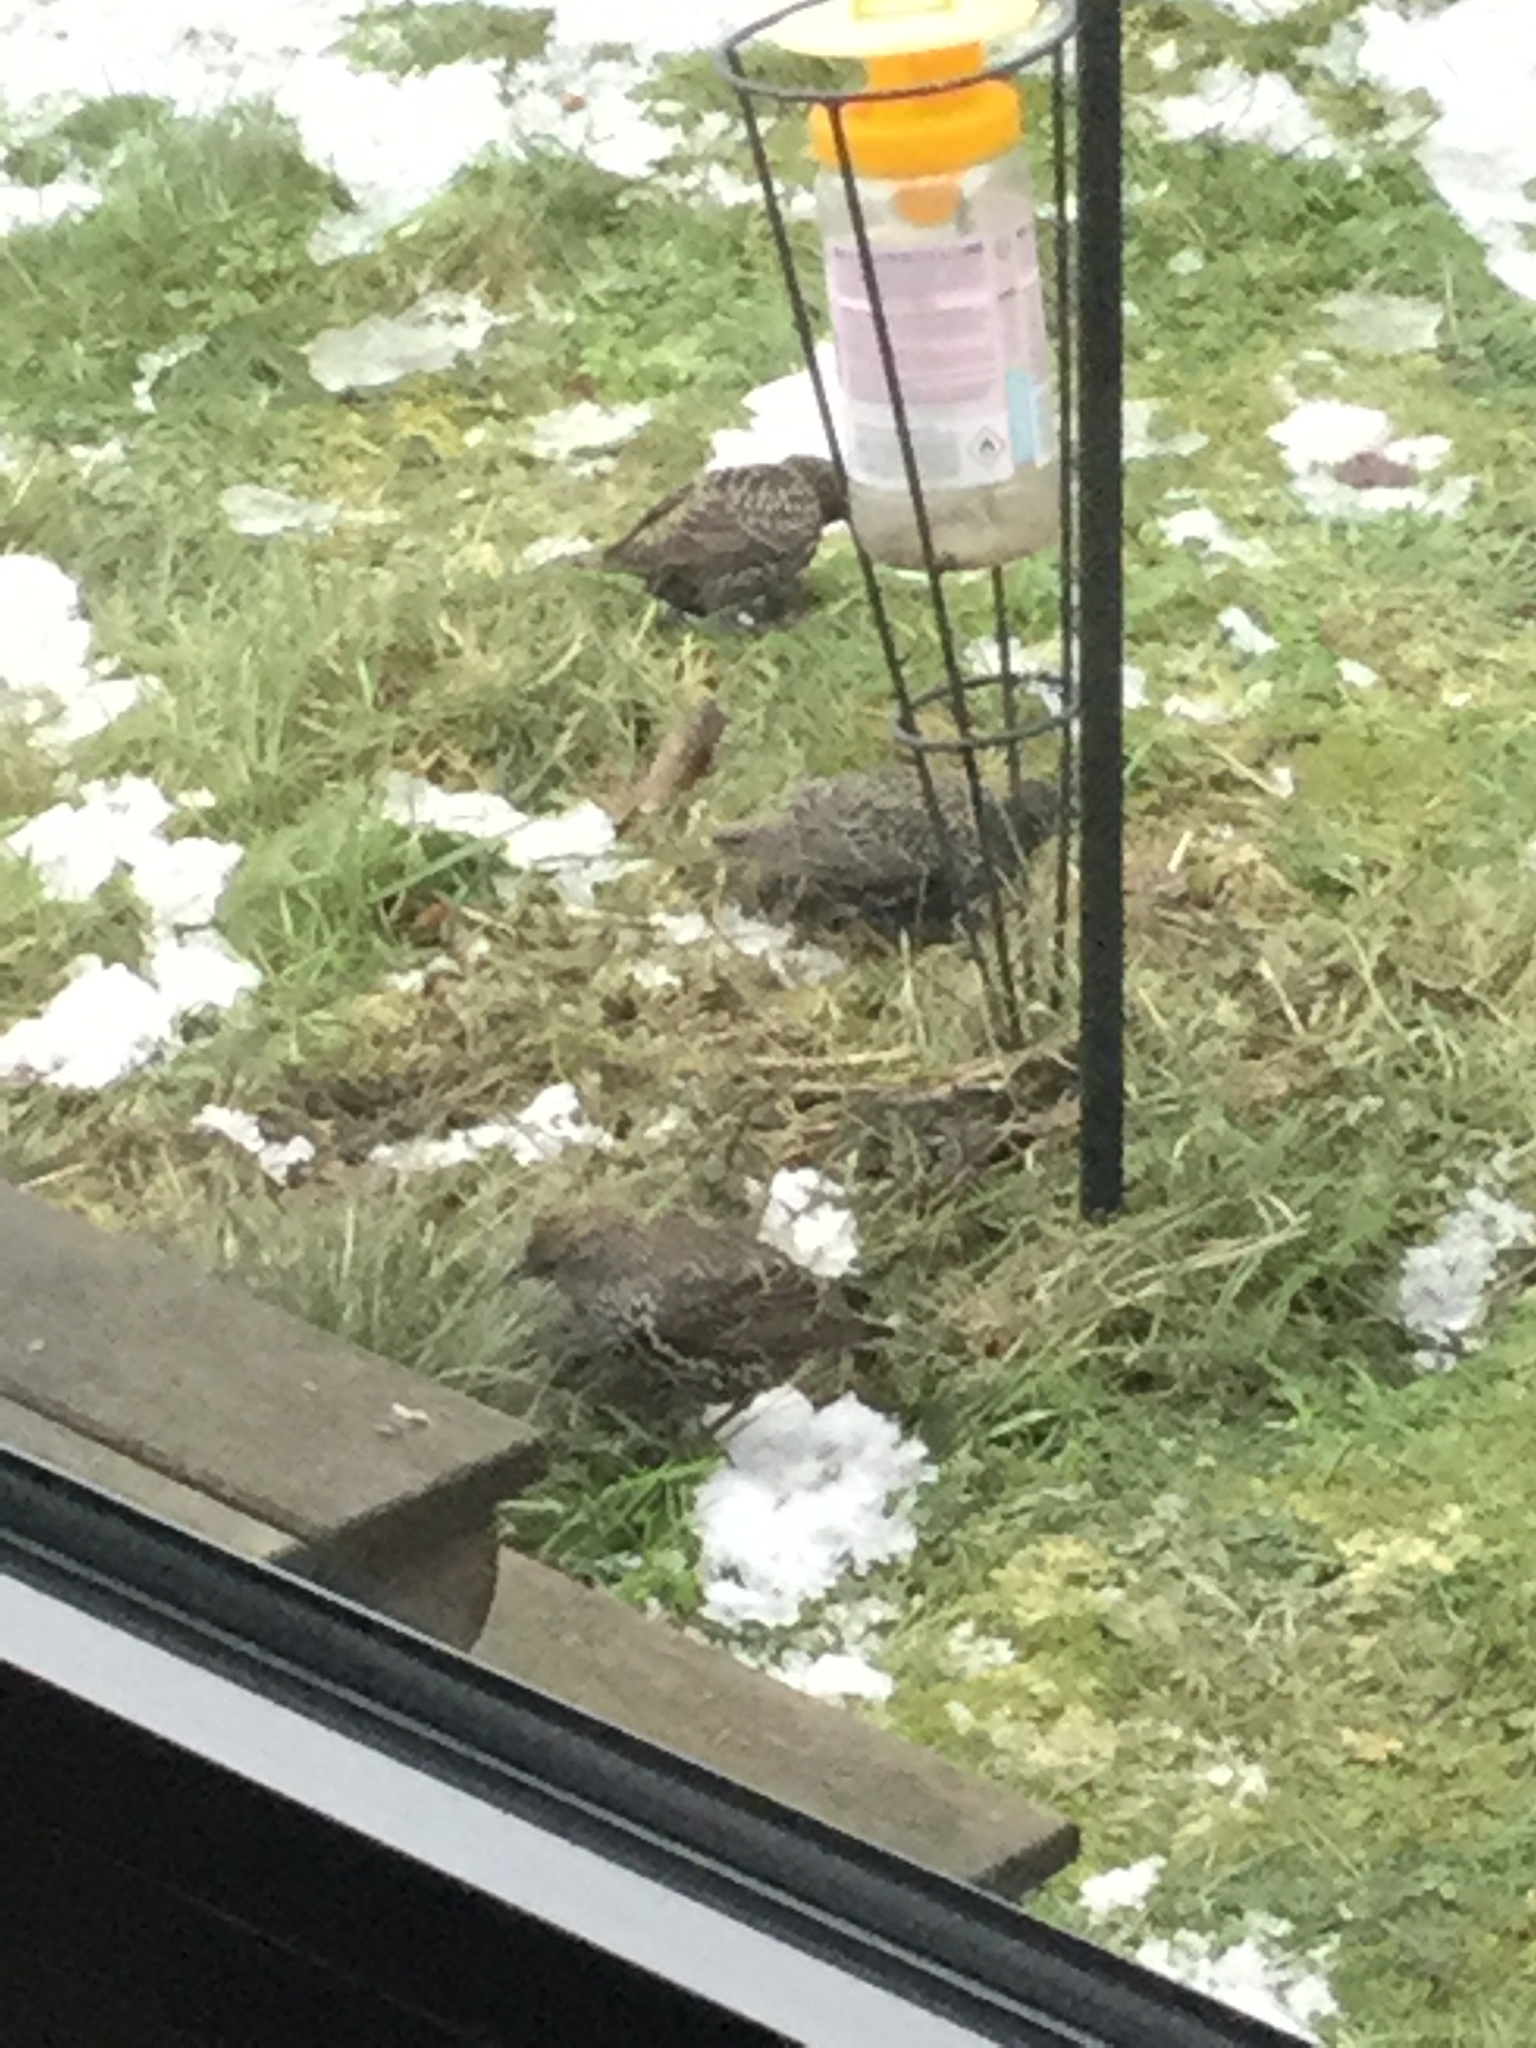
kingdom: Animalia
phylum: Chordata
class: Aves
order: Passeriformes
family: Sturnidae
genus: Sturnus
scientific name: Sturnus vulgaris
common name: Common starling
